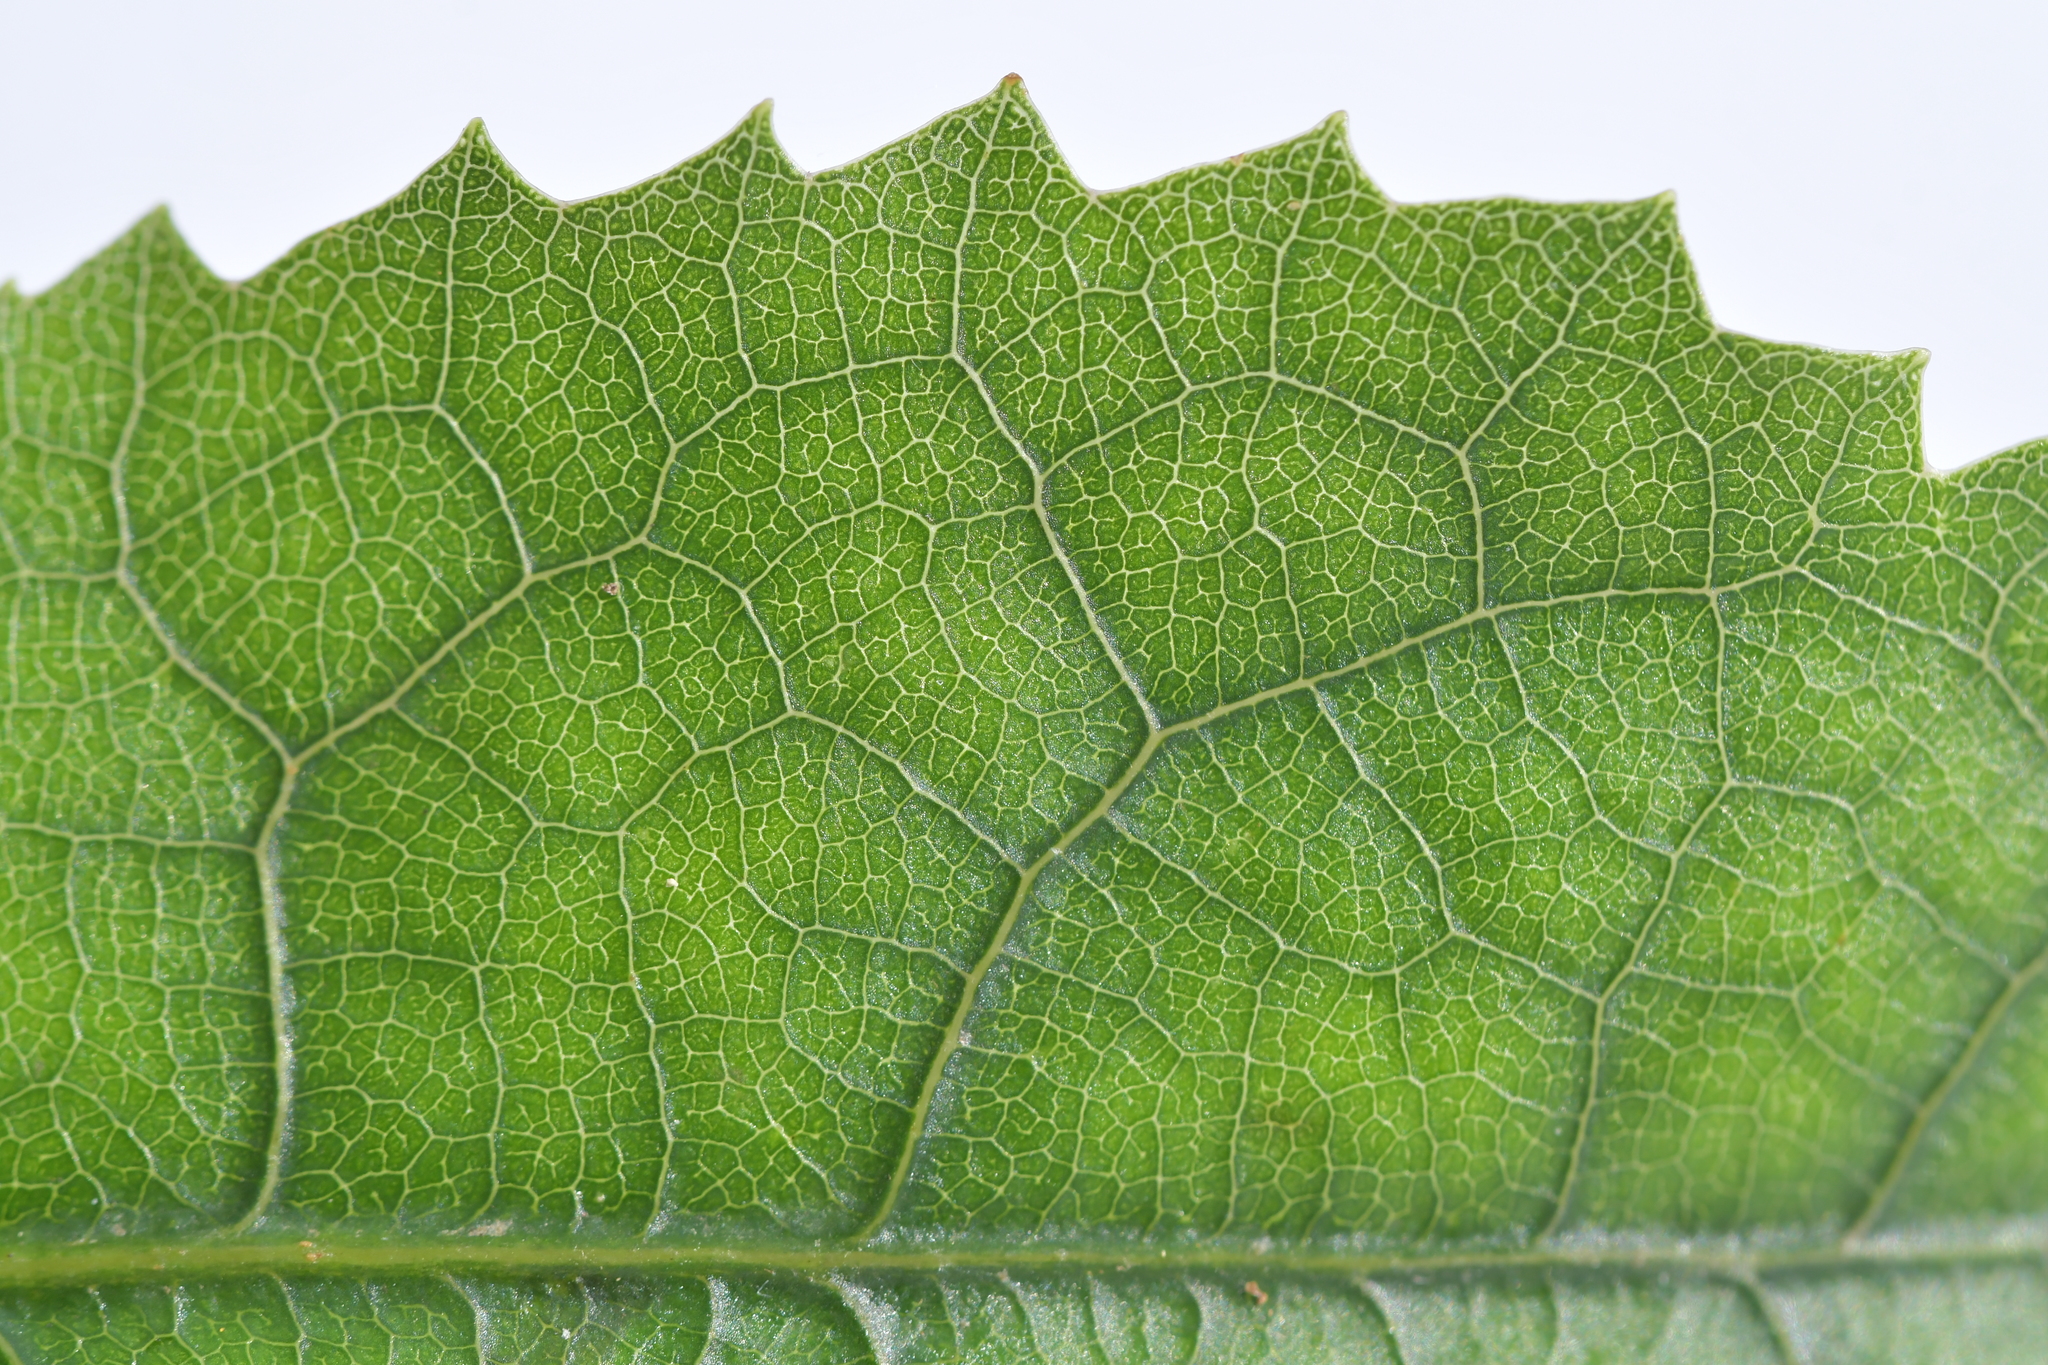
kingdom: Plantae
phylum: Tracheophyta
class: Magnoliopsida
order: Malvales
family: Malvaceae
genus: Hoheria
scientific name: Hoheria populnea
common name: Lacebark
